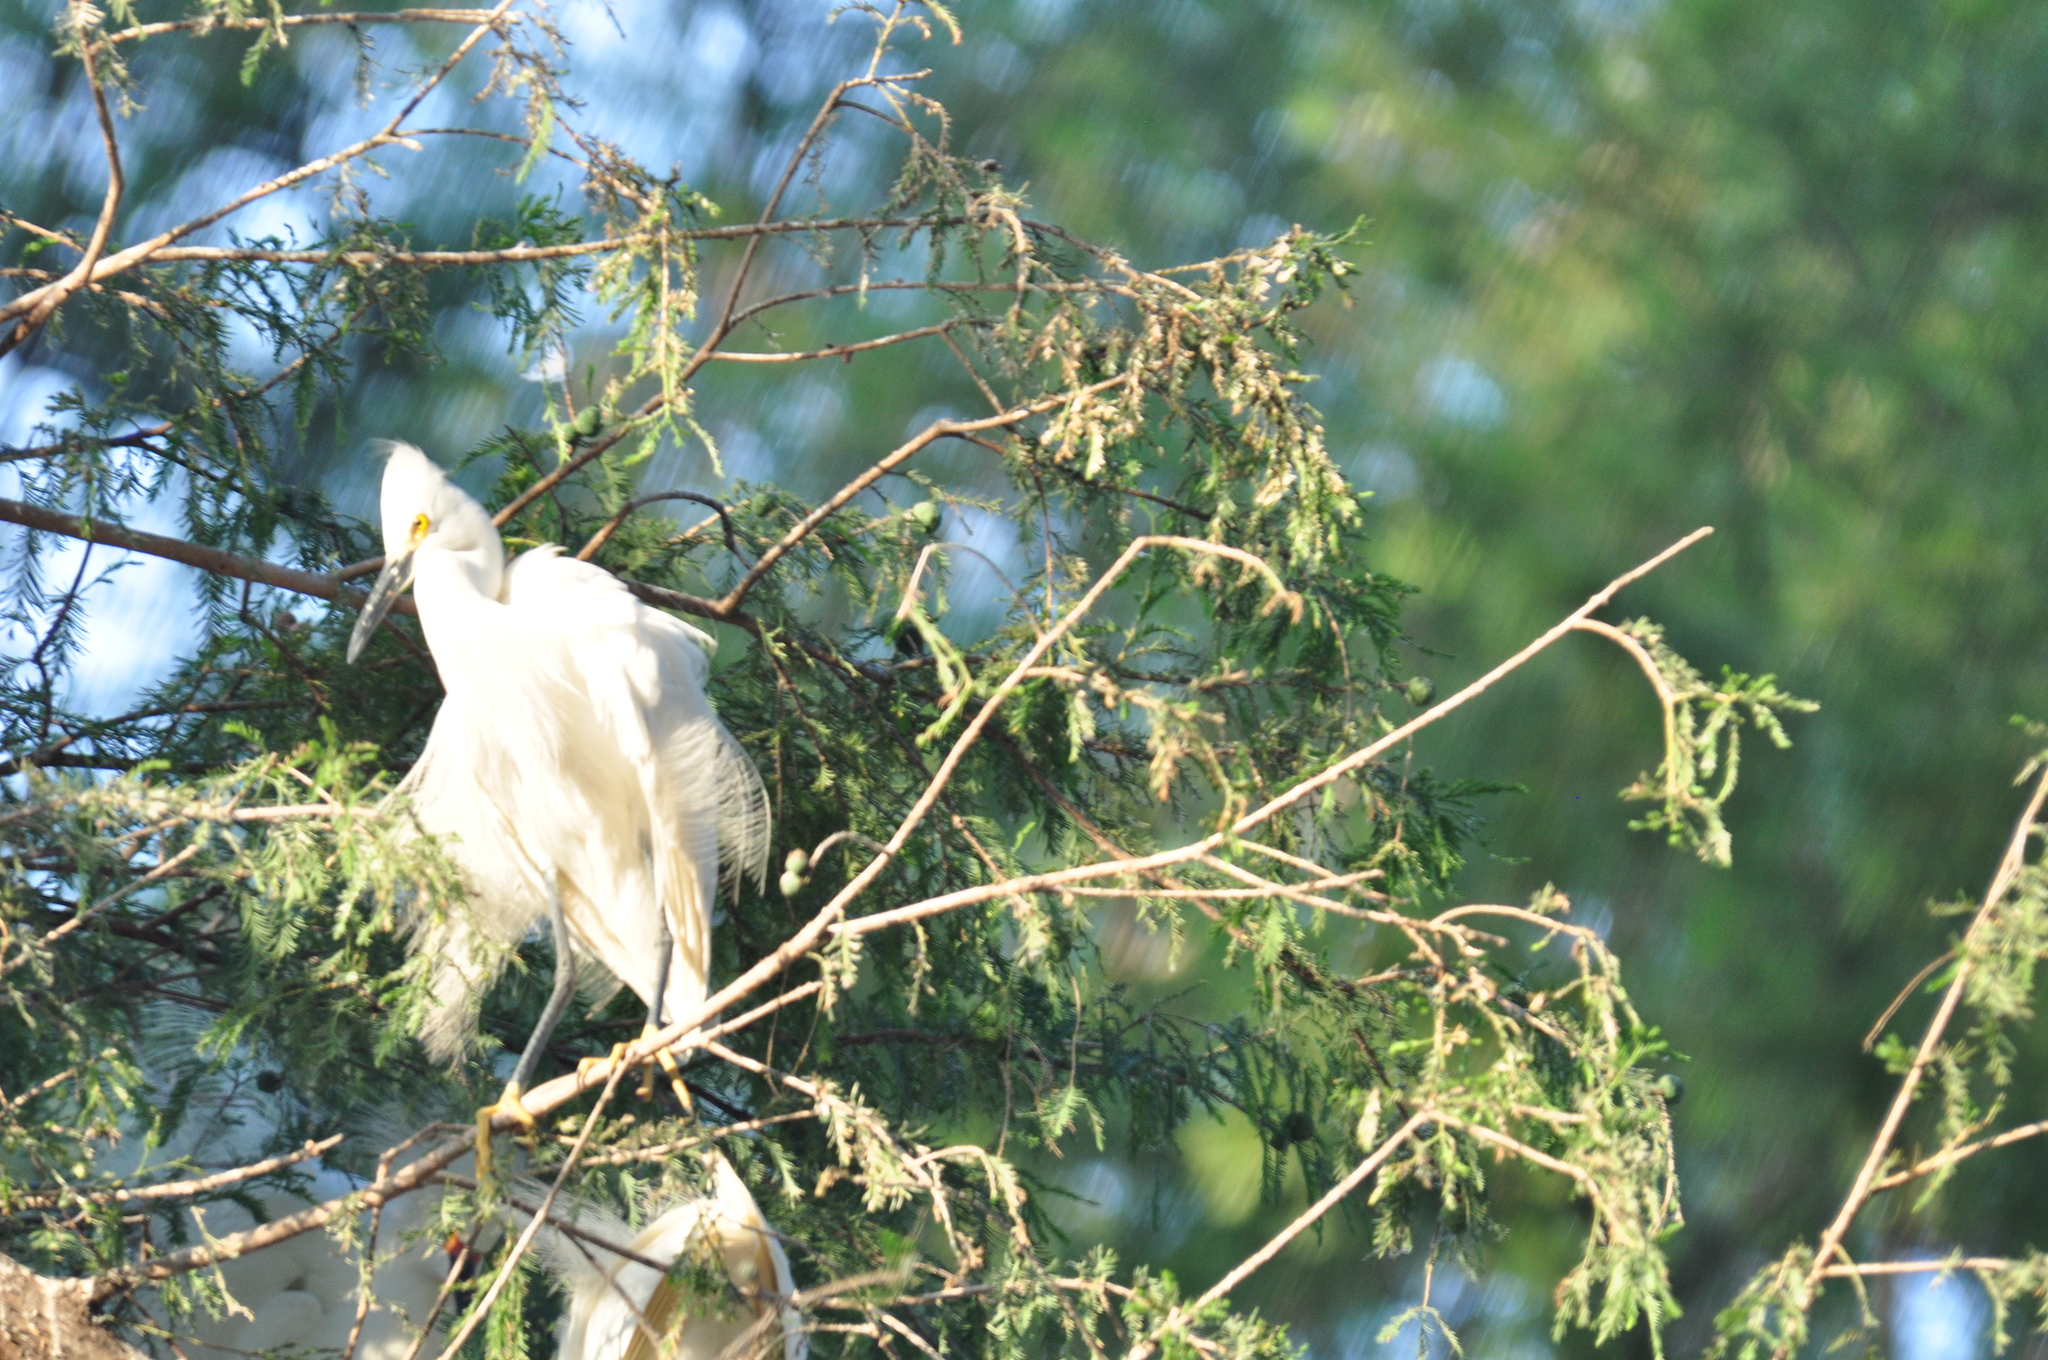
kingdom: Animalia
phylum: Chordata
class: Aves
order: Pelecaniformes
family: Ardeidae
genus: Egretta
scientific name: Egretta thula
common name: Snowy egret
